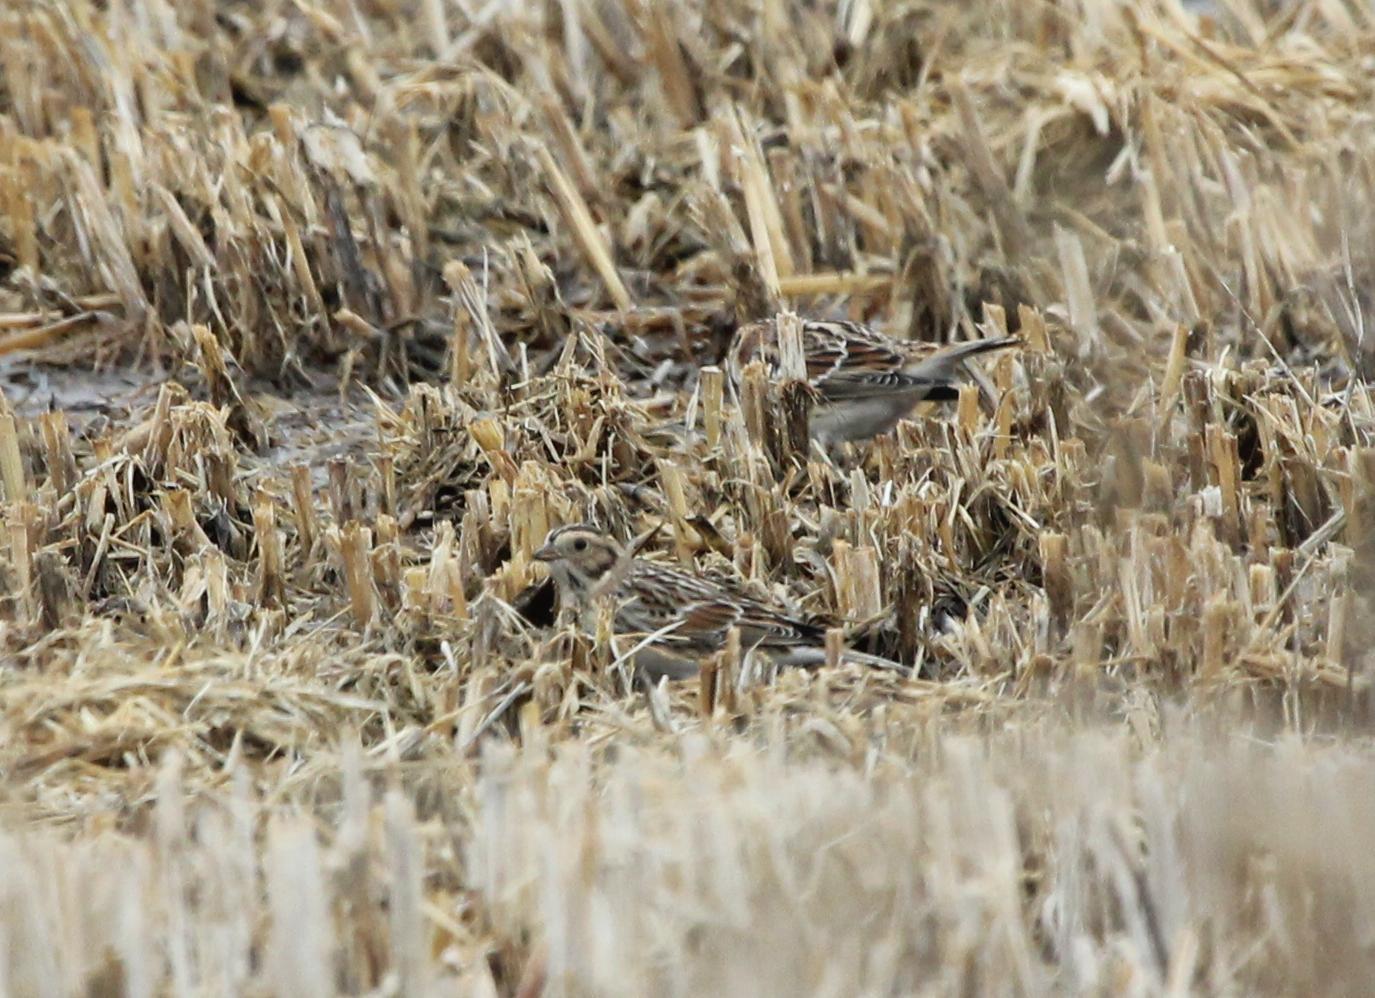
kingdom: Animalia
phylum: Chordata
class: Aves
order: Passeriformes
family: Calcariidae
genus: Calcarius
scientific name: Calcarius lapponicus
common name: Lapland longspur
